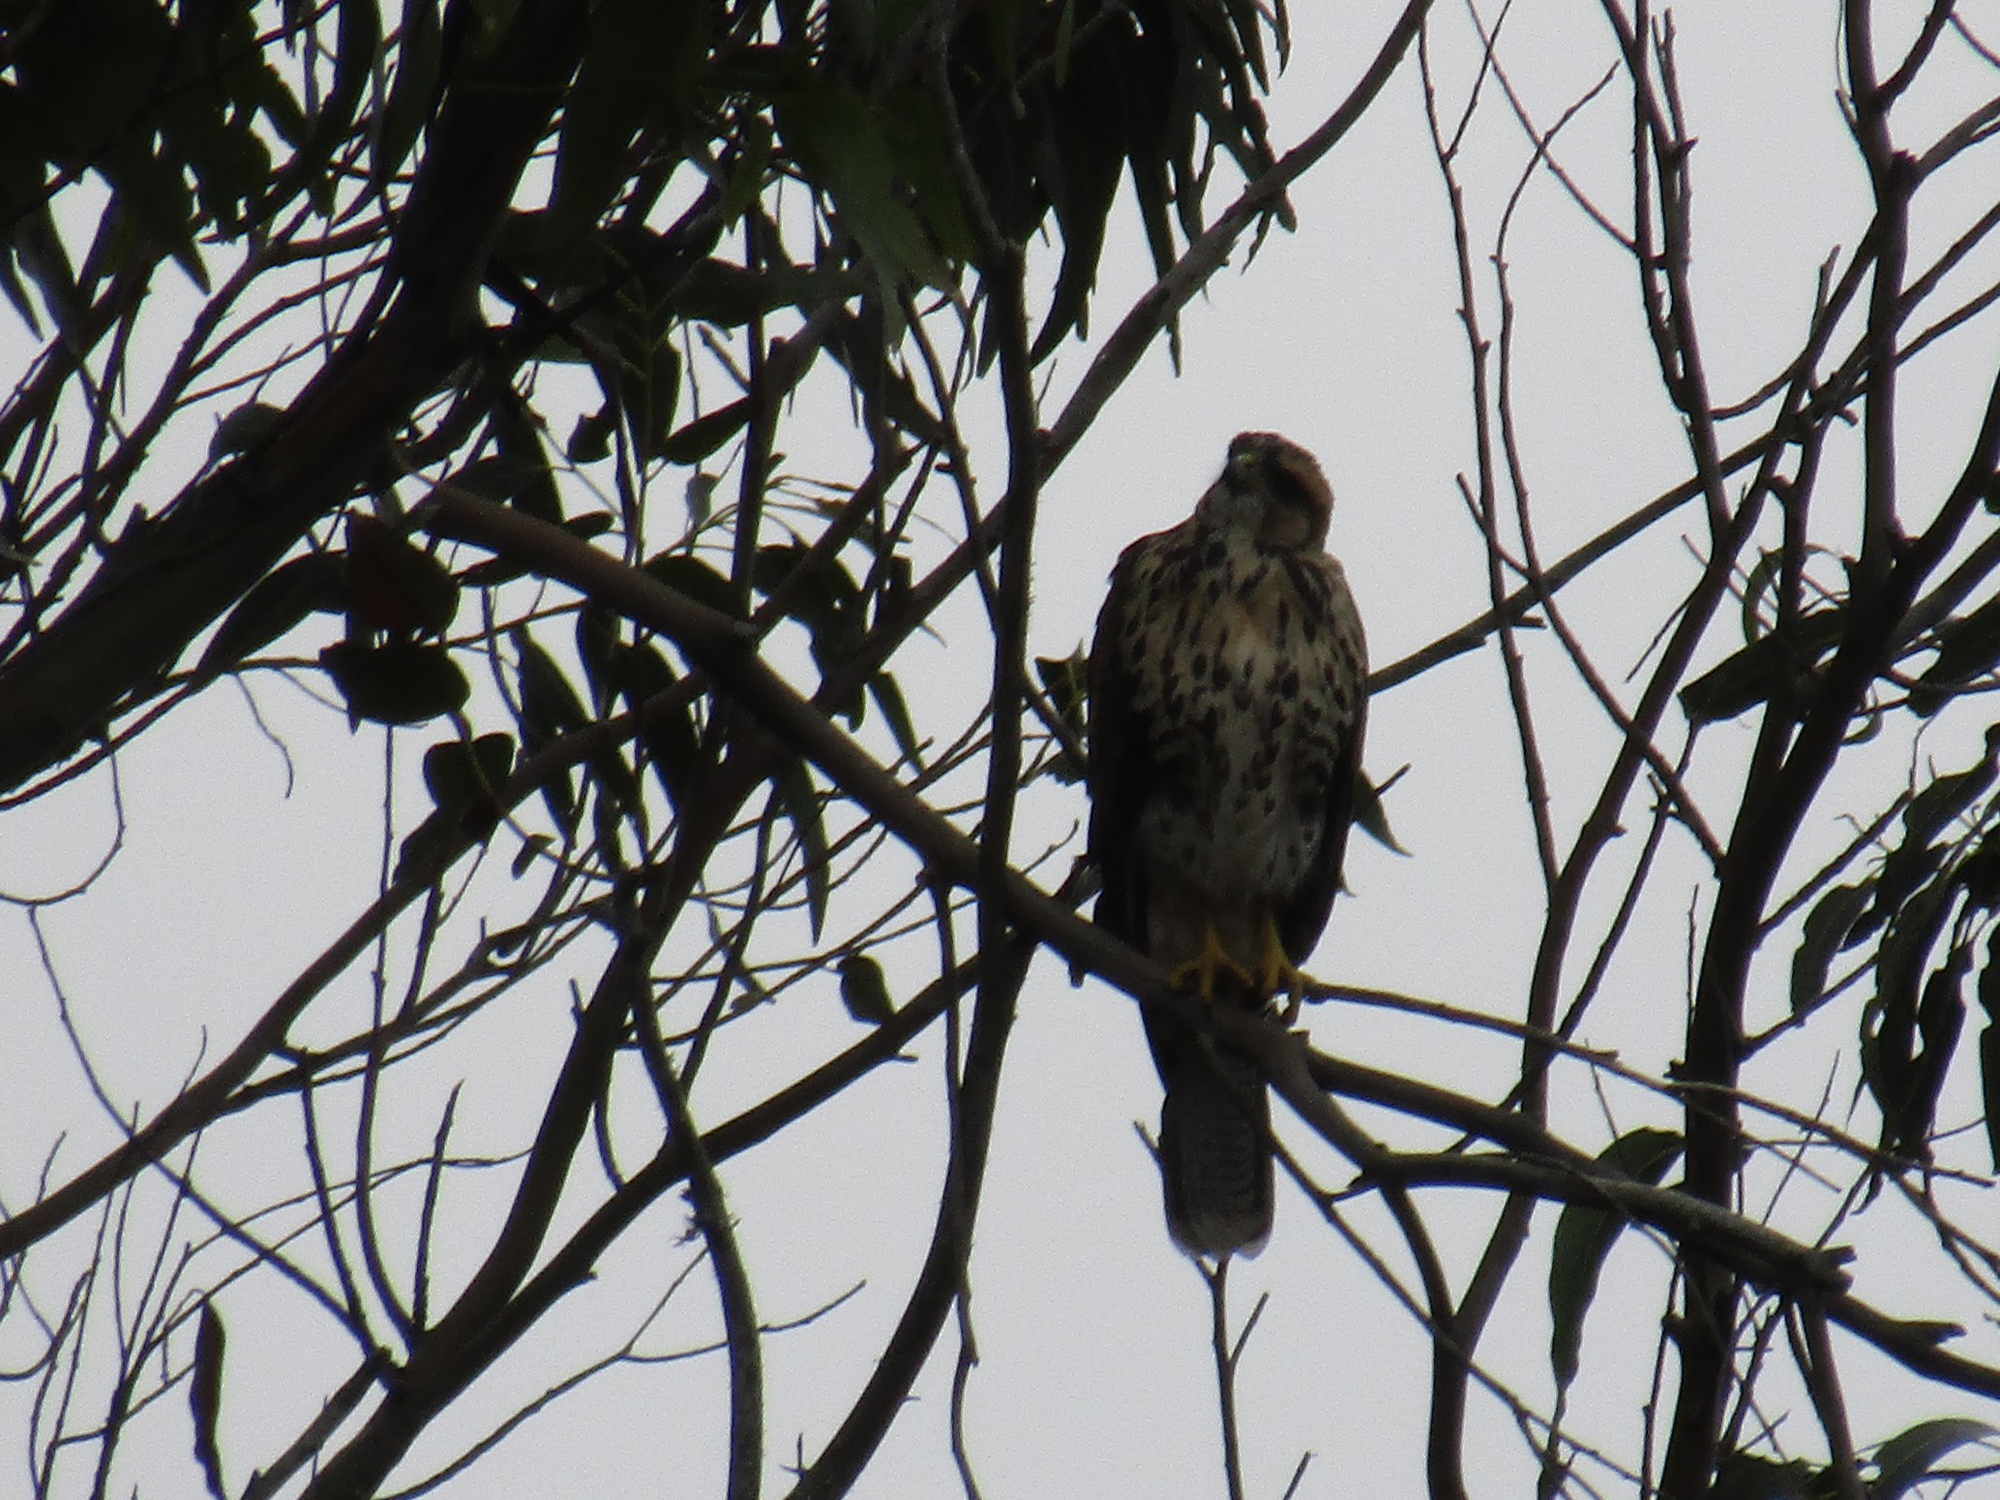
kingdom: Animalia
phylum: Chordata
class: Aves
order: Accipitriformes
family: Accipitridae
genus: Parabuteo
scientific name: Parabuteo unicinctus
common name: Harris's hawk
